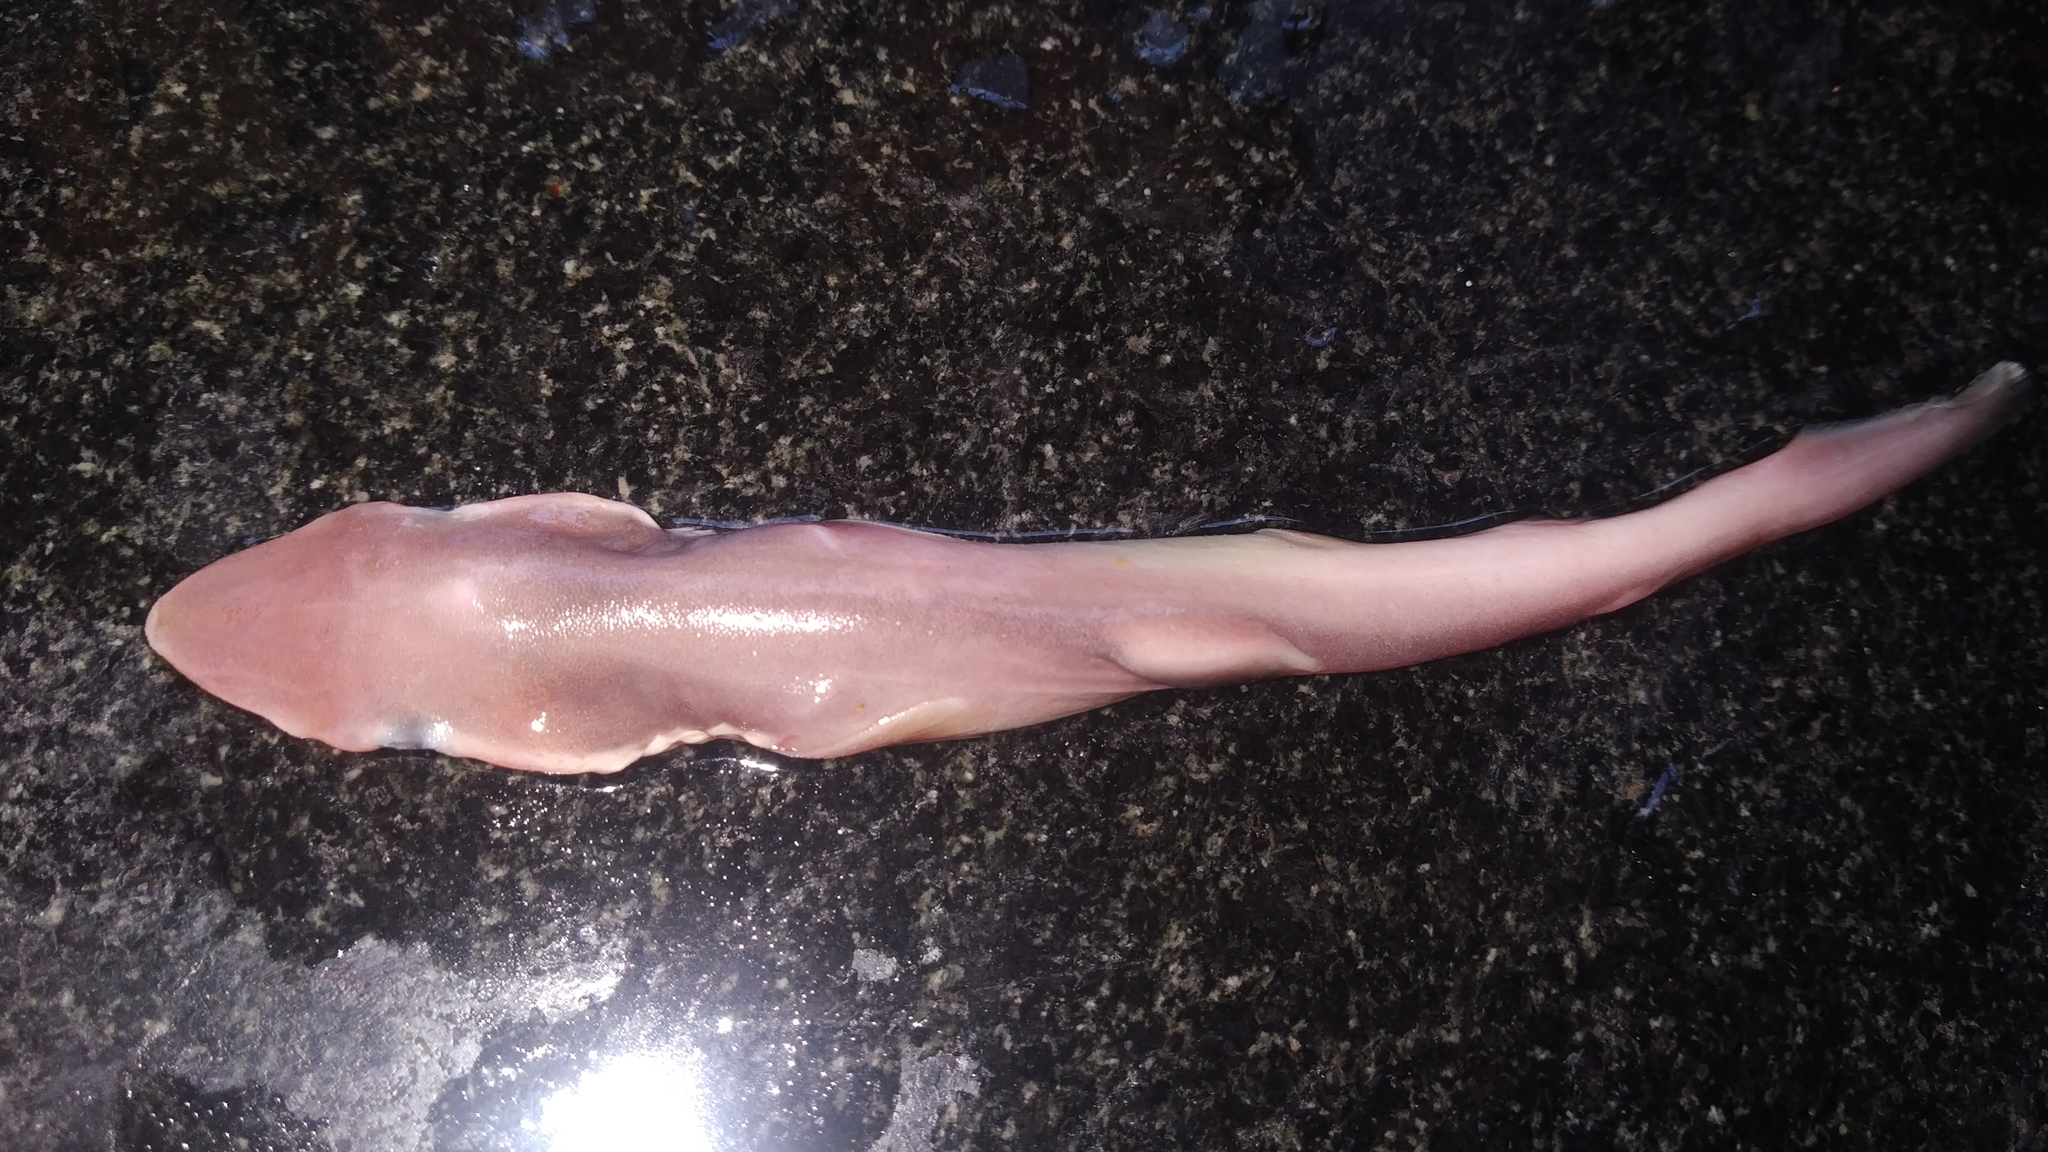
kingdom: Animalia
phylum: Chordata
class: Elasmobranchii
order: Carcharhiniformes
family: Carcharhinidae
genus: Scoliodon
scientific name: Scoliodon laticaudus
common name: Spadenose shark
